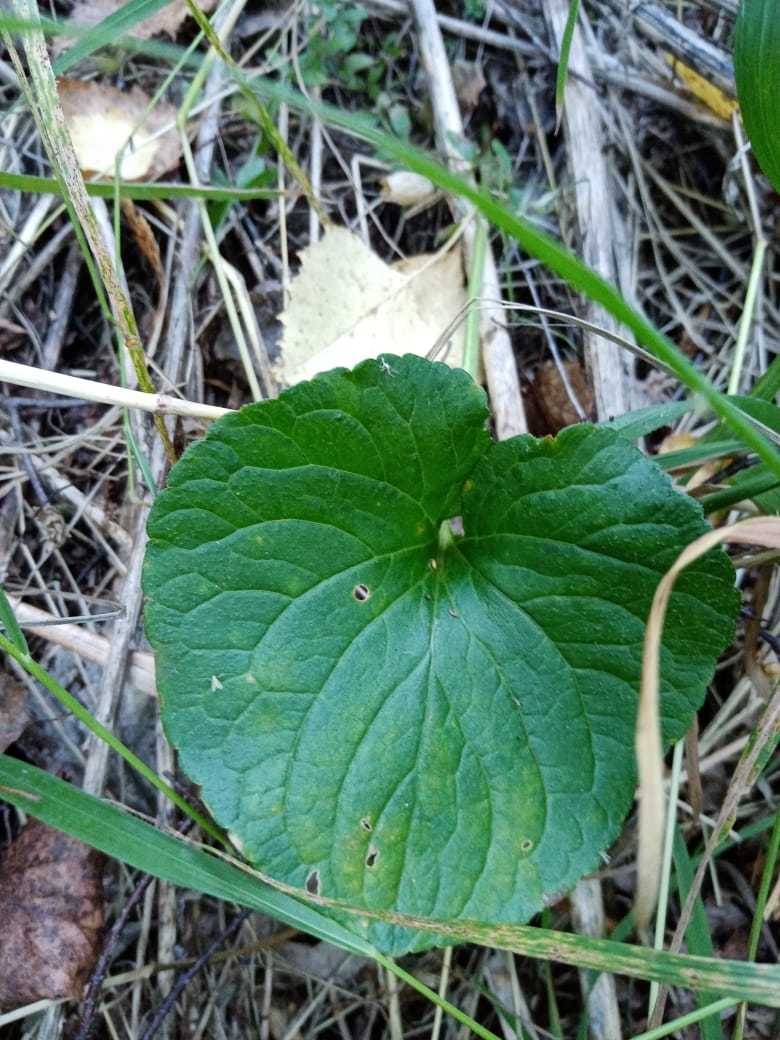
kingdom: Plantae
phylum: Tracheophyta
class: Magnoliopsida
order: Malpighiales
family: Violaceae
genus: Viola
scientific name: Viola mirabilis
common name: Wonder violet
